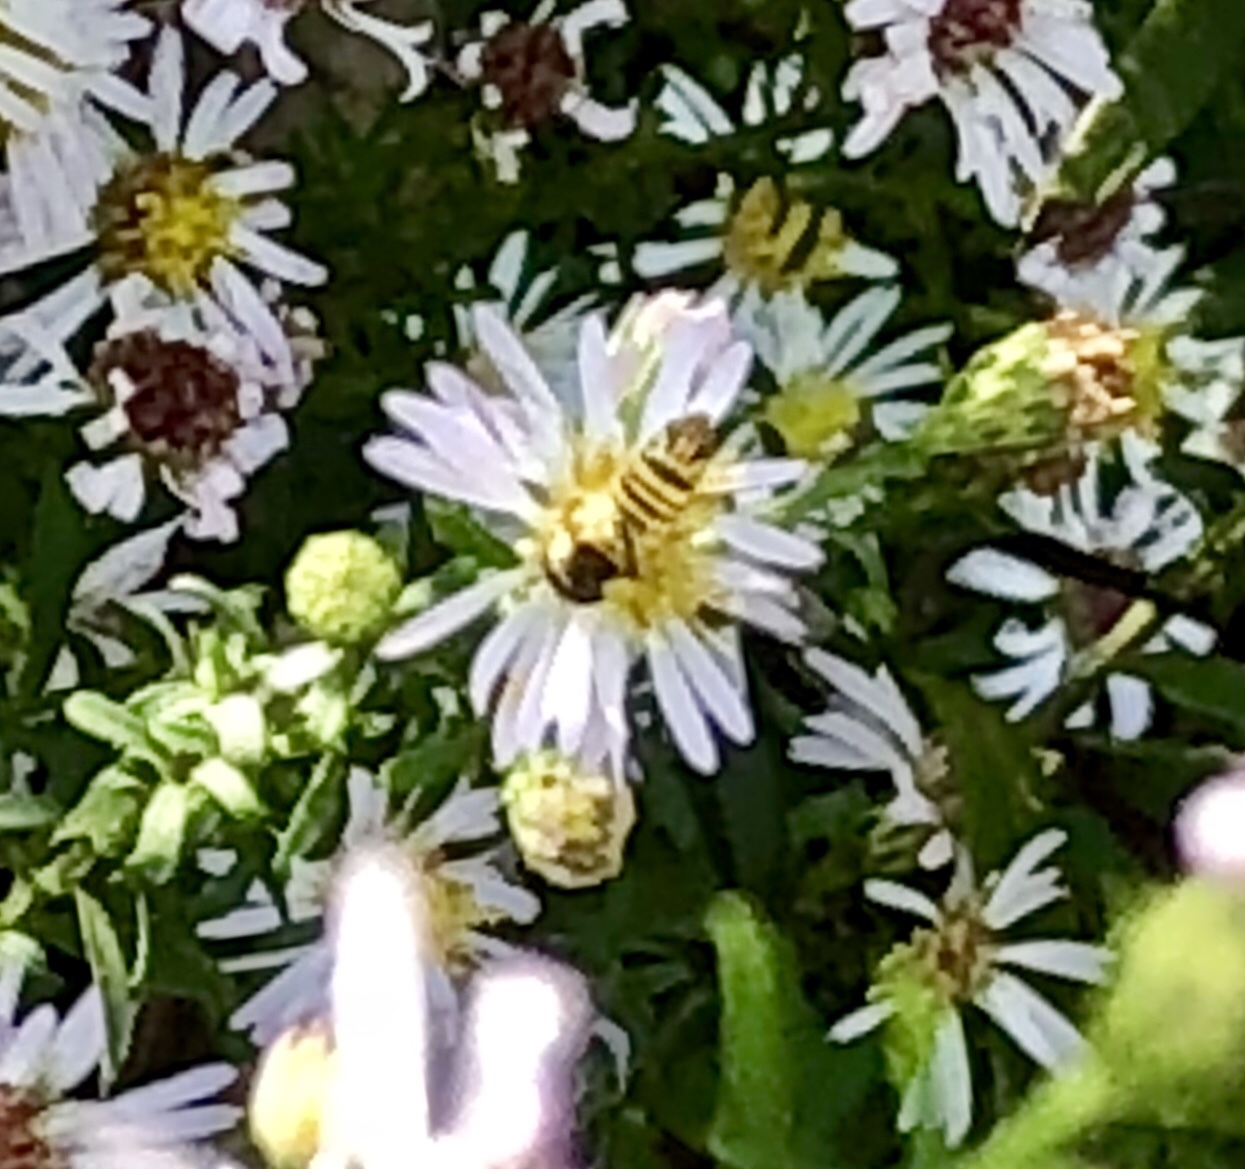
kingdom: Animalia
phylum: Arthropoda
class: Insecta
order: Diptera
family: Syrphidae
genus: Allograpta
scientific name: Allograpta obliqua
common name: Common oblique syrphid
